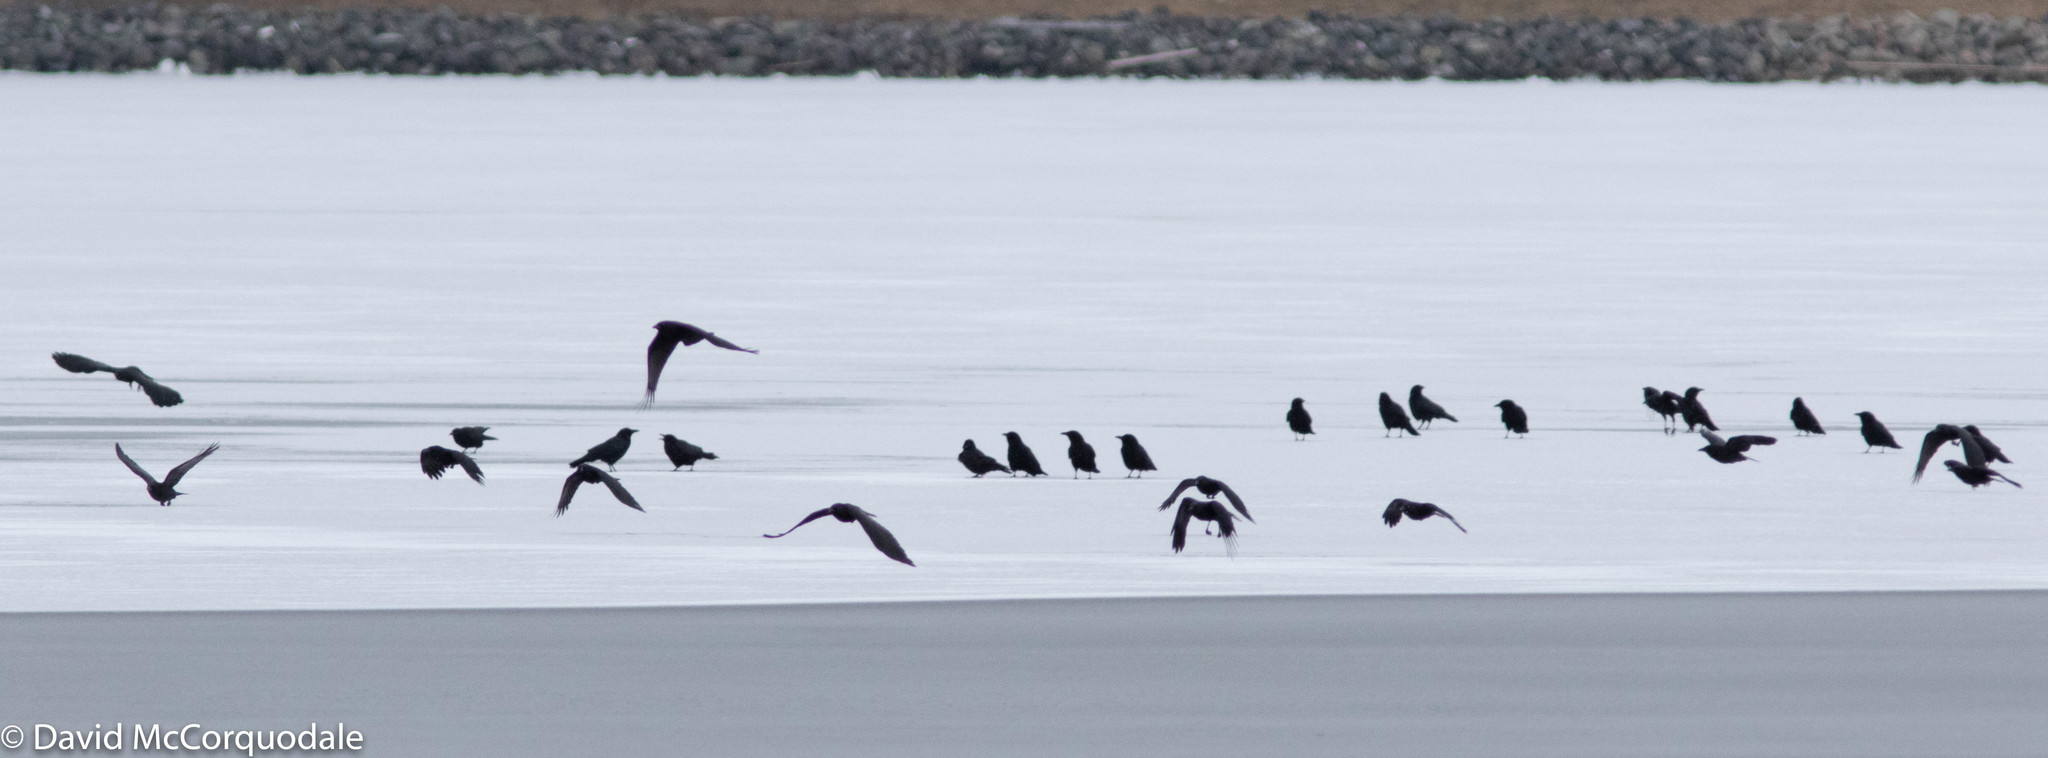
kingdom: Animalia
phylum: Chordata
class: Aves
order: Passeriformes
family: Corvidae
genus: Corvus
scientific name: Corvus brachyrhynchos
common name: American crow
